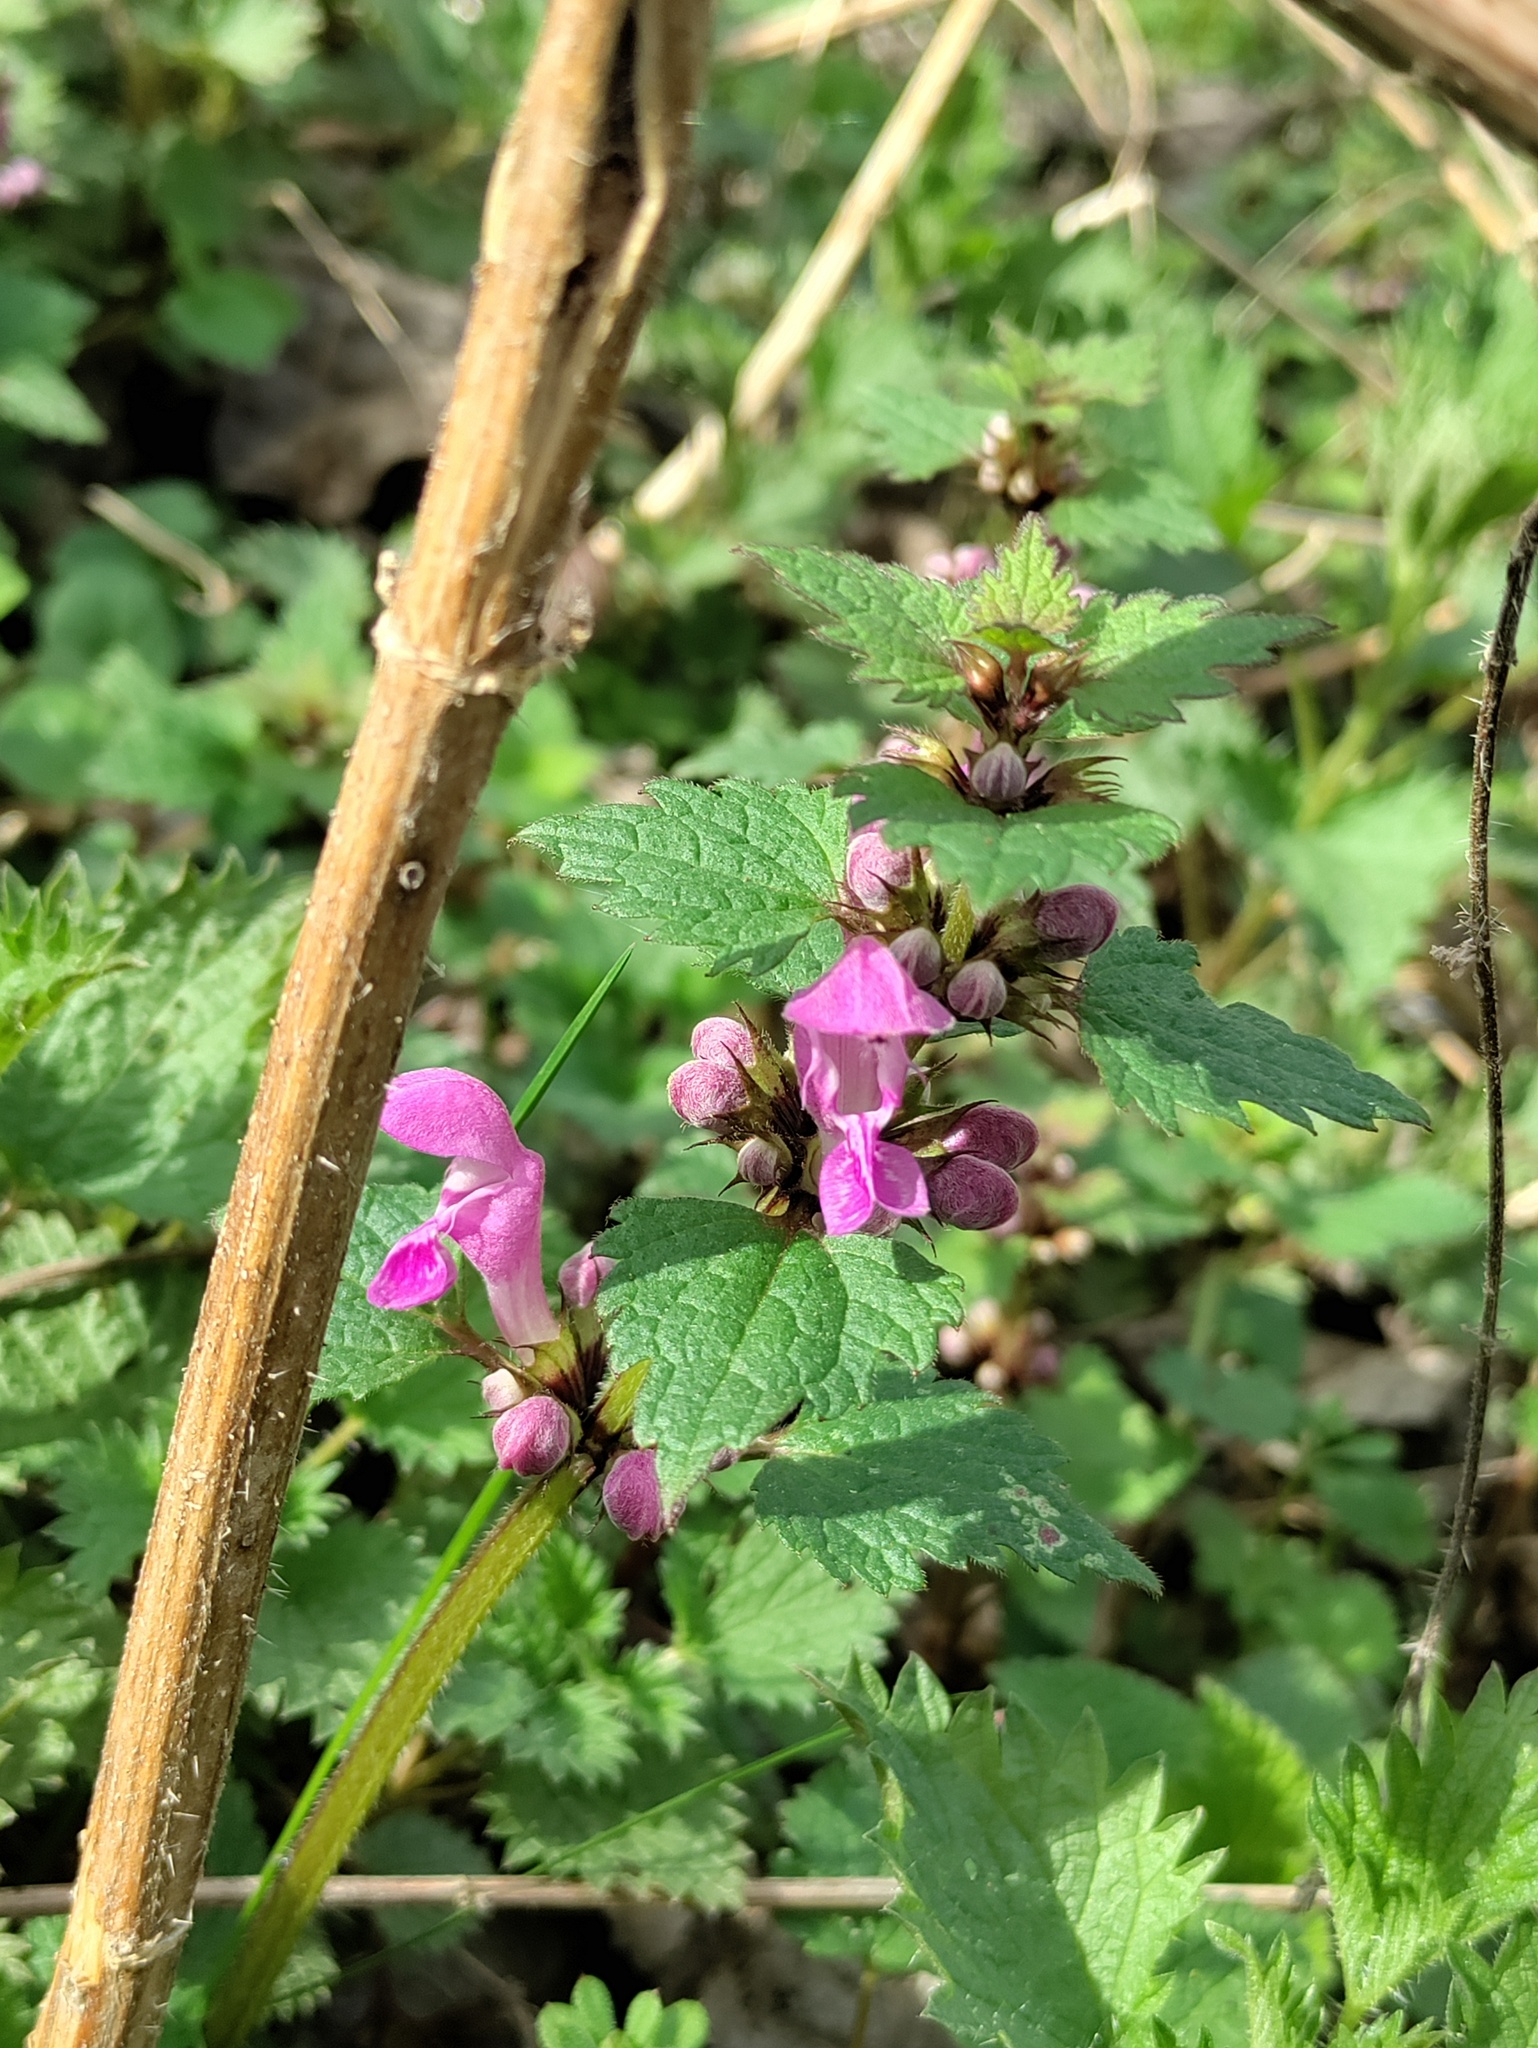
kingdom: Plantae
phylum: Tracheophyta
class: Magnoliopsida
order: Lamiales
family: Lamiaceae
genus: Lamium
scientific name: Lamium maculatum
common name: Spotted dead-nettle
